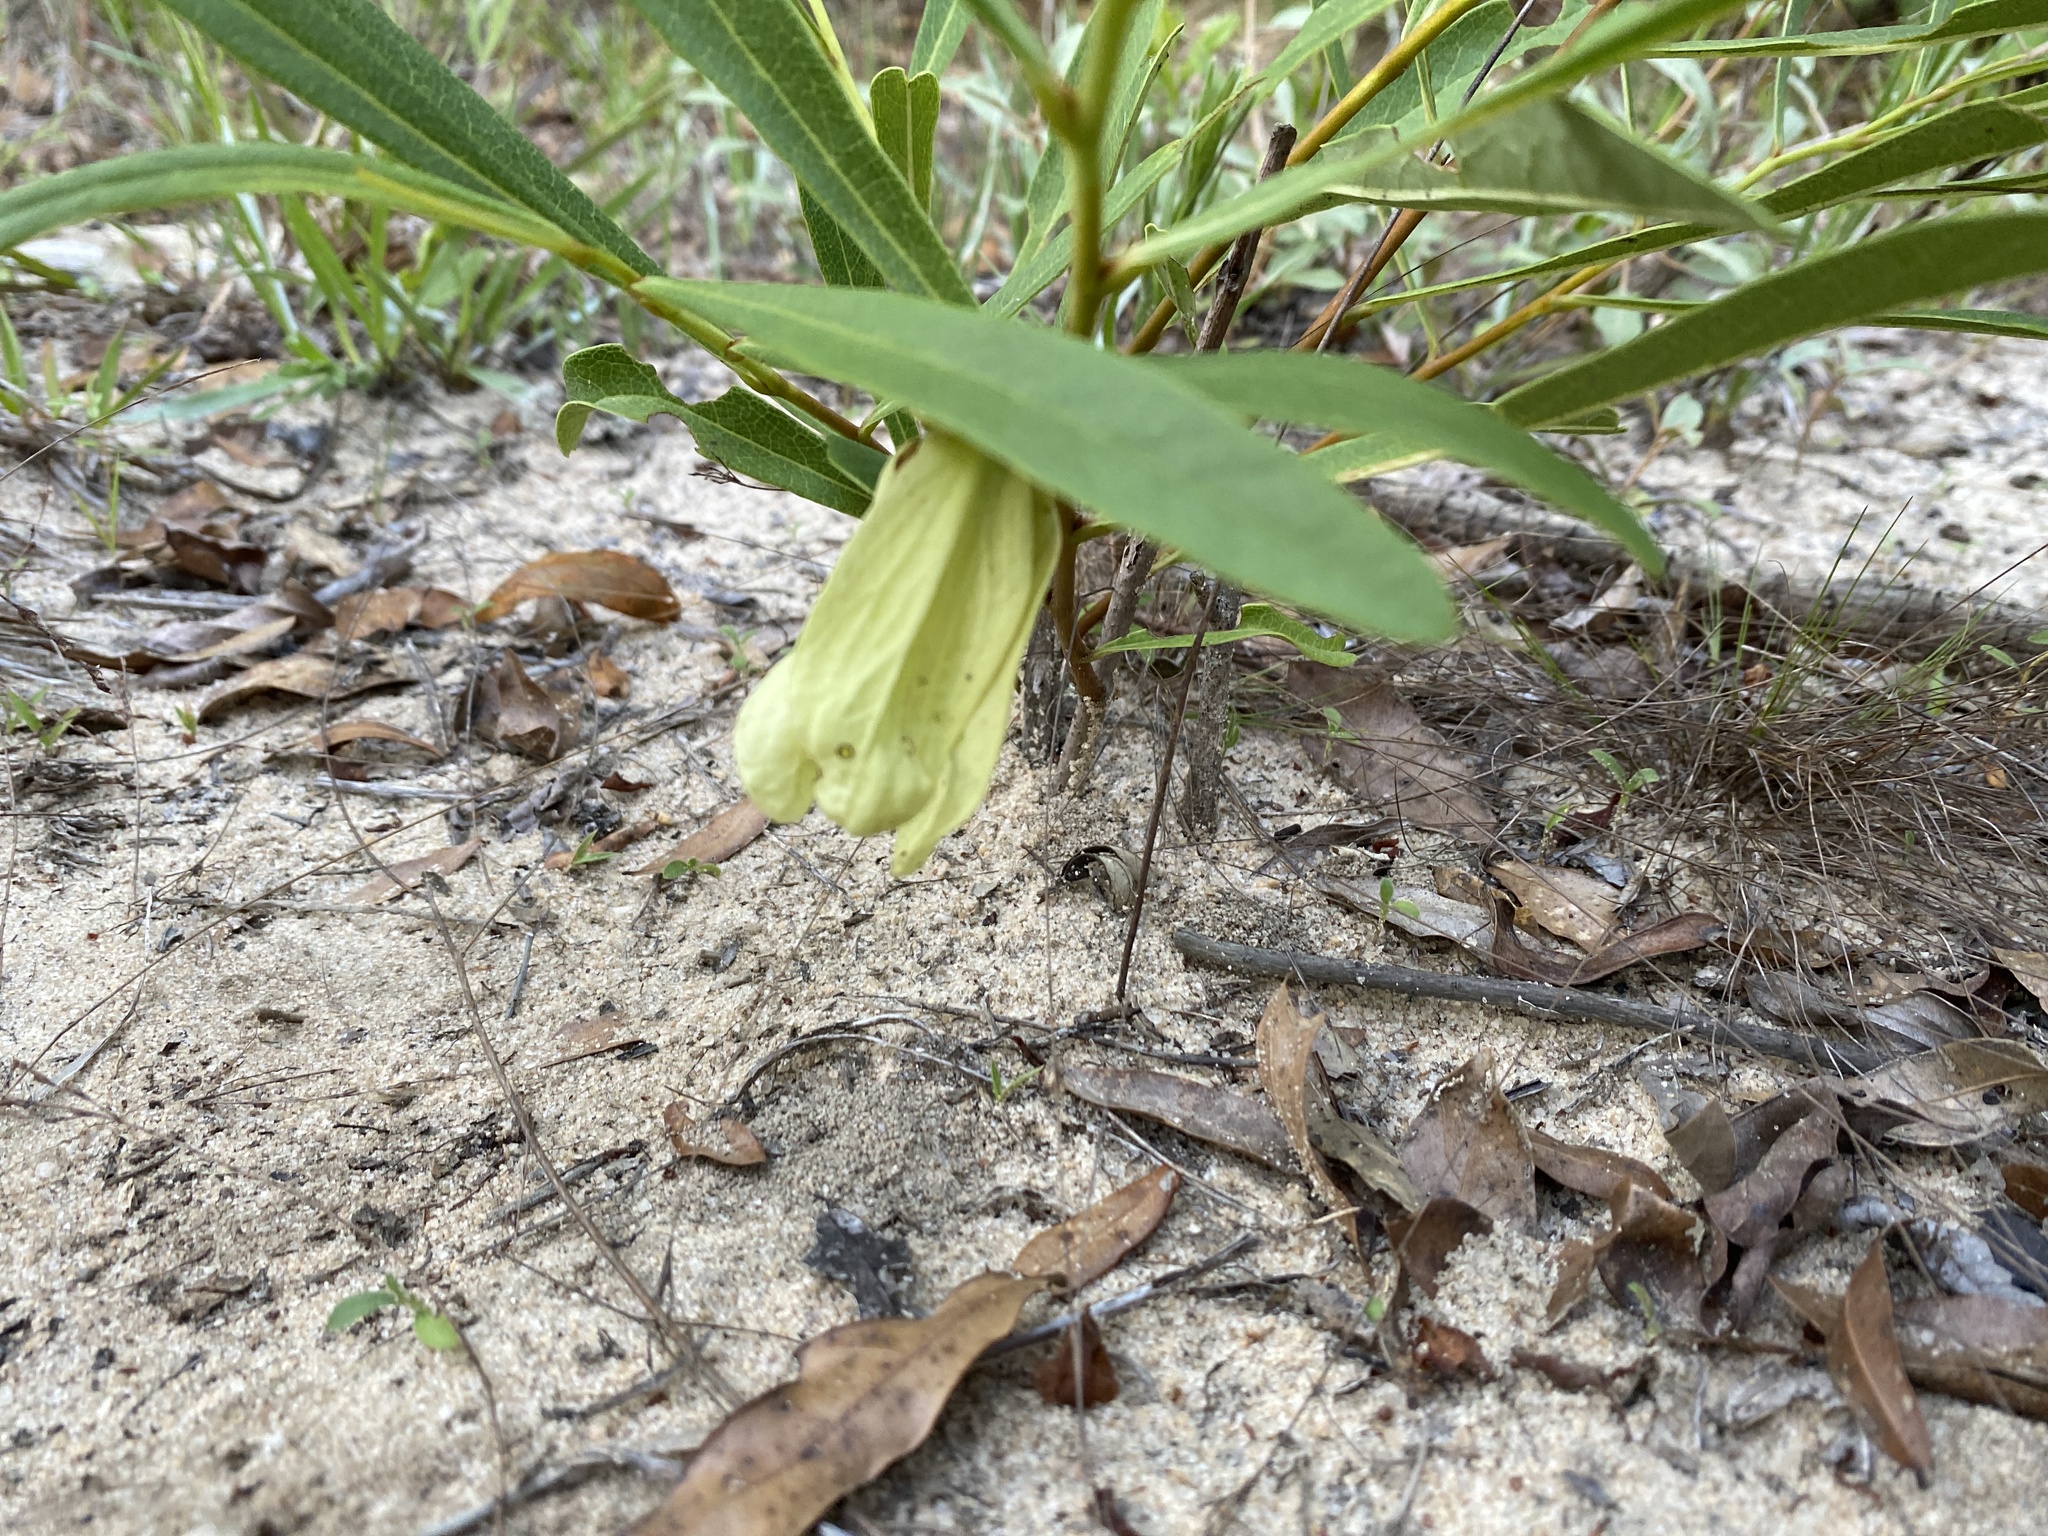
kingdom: Plantae
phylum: Tracheophyta
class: Magnoliopsida
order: Magnoliales
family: Annonaceae
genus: Asimina
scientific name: Asimina longifolia
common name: Polecatbush
